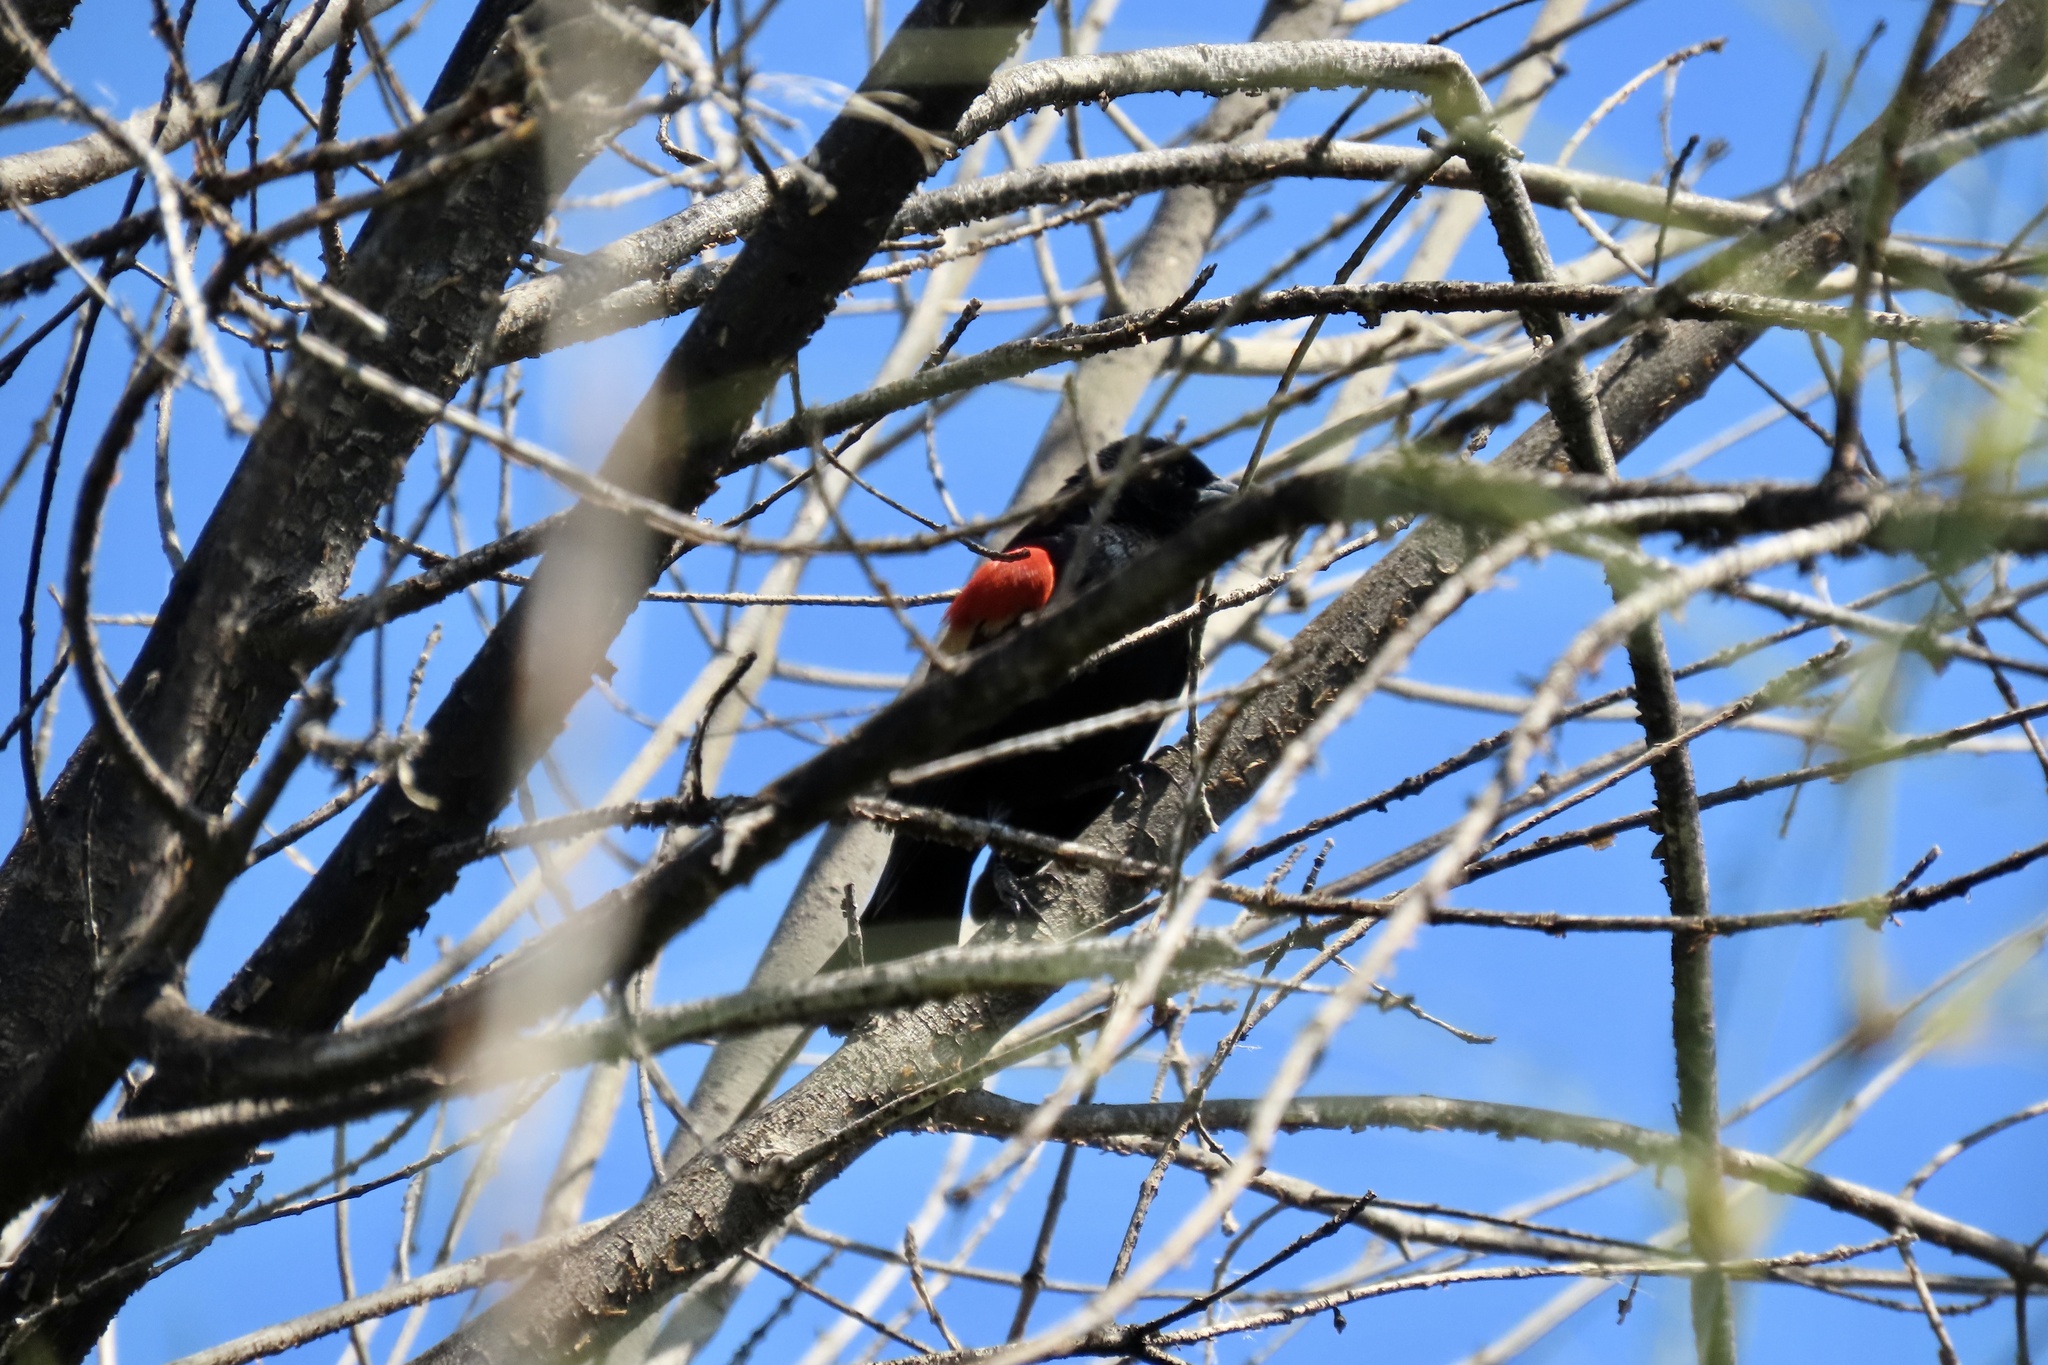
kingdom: Animalia
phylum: Chordata
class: Aves
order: Passeriformes
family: Icteridae
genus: Agelaius
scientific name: Agelaius phoeniceus
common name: Red-winged blackbird
